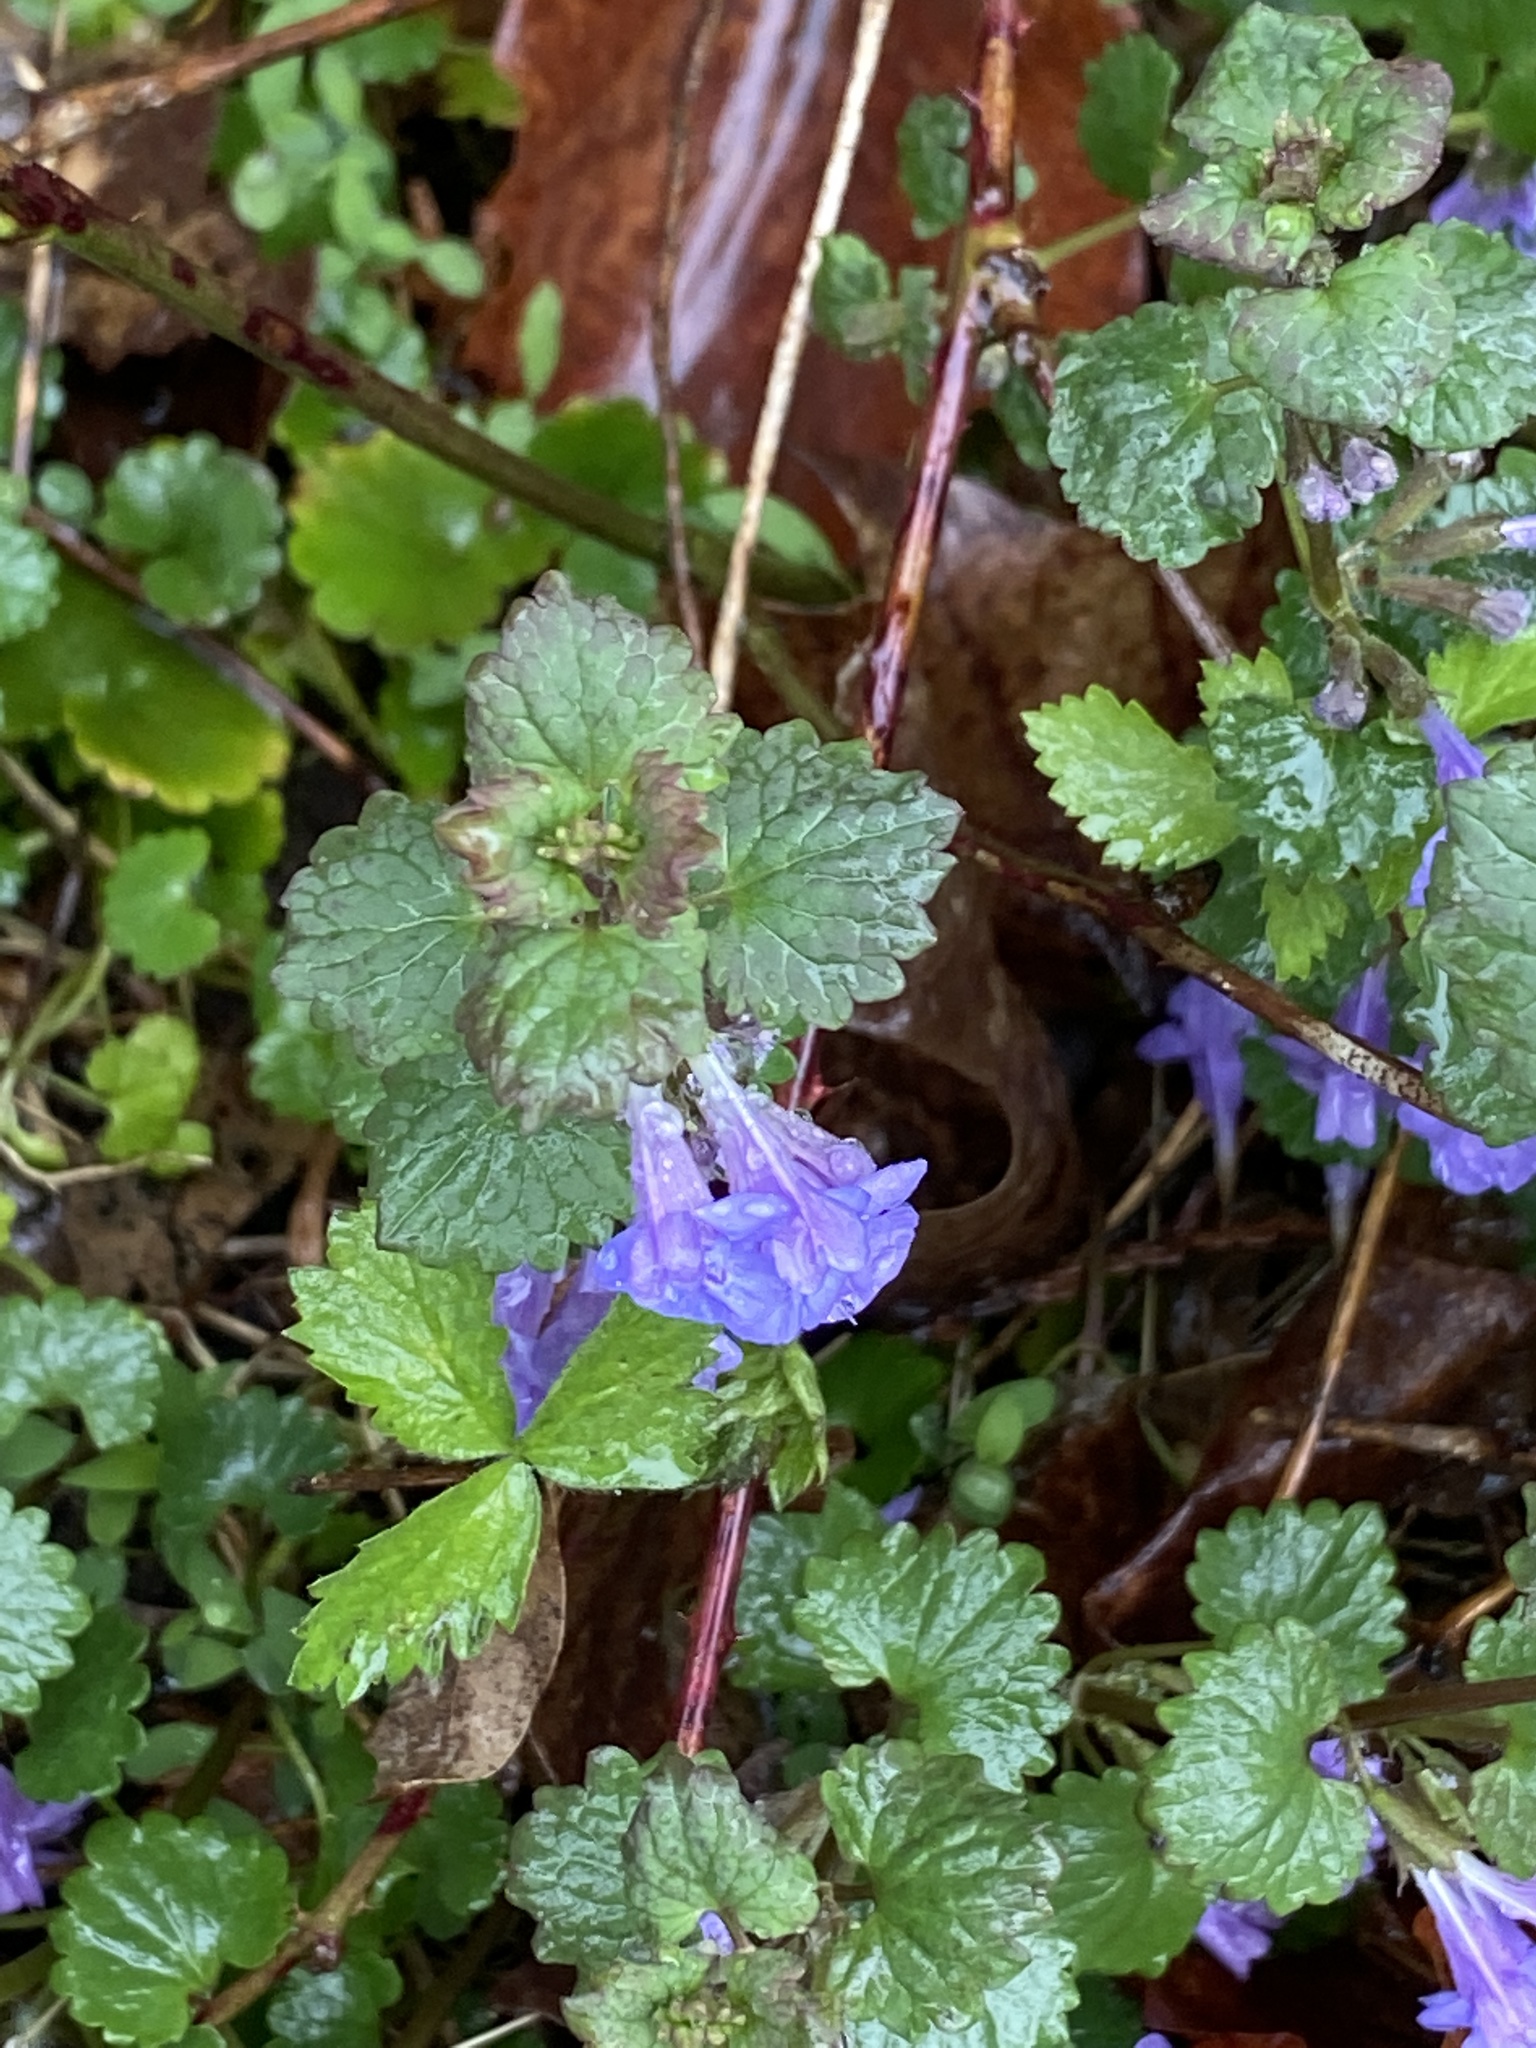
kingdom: Plantae
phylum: Tracheophyta
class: Magnoliopsida
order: Lamiales
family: Lamiaceae
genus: Glechoma
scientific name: Glechoma hederacea
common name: Ground ivy
